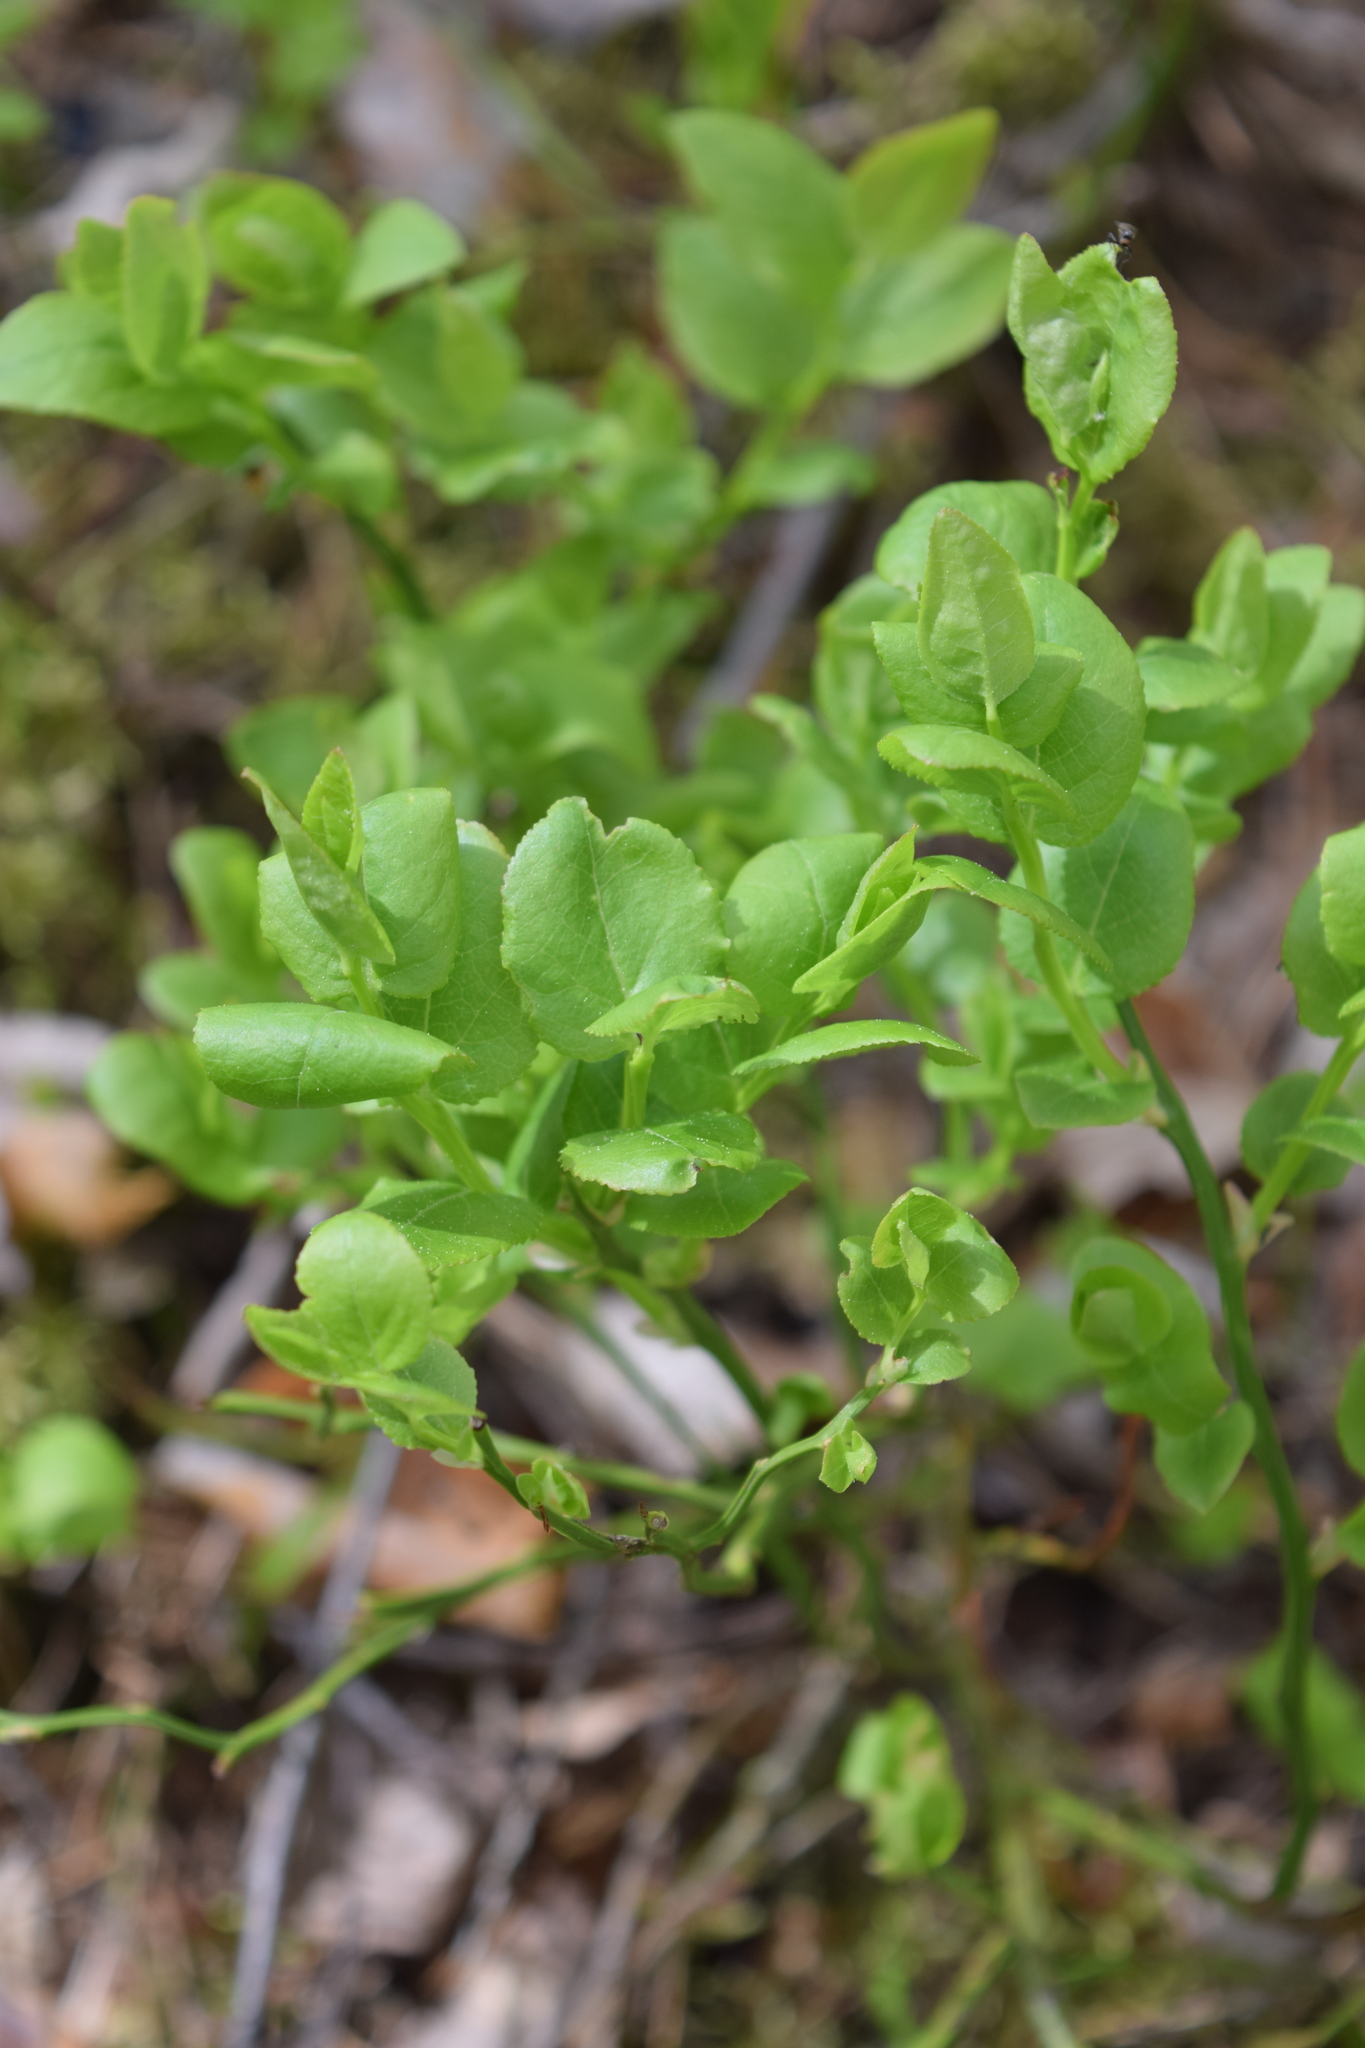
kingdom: Plantae
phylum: Tracheophyta
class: Magnoliopsida
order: Ericales
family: Ericaceae
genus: Vaccinium
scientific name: Vaccinium myrtillus
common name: Bilberry
